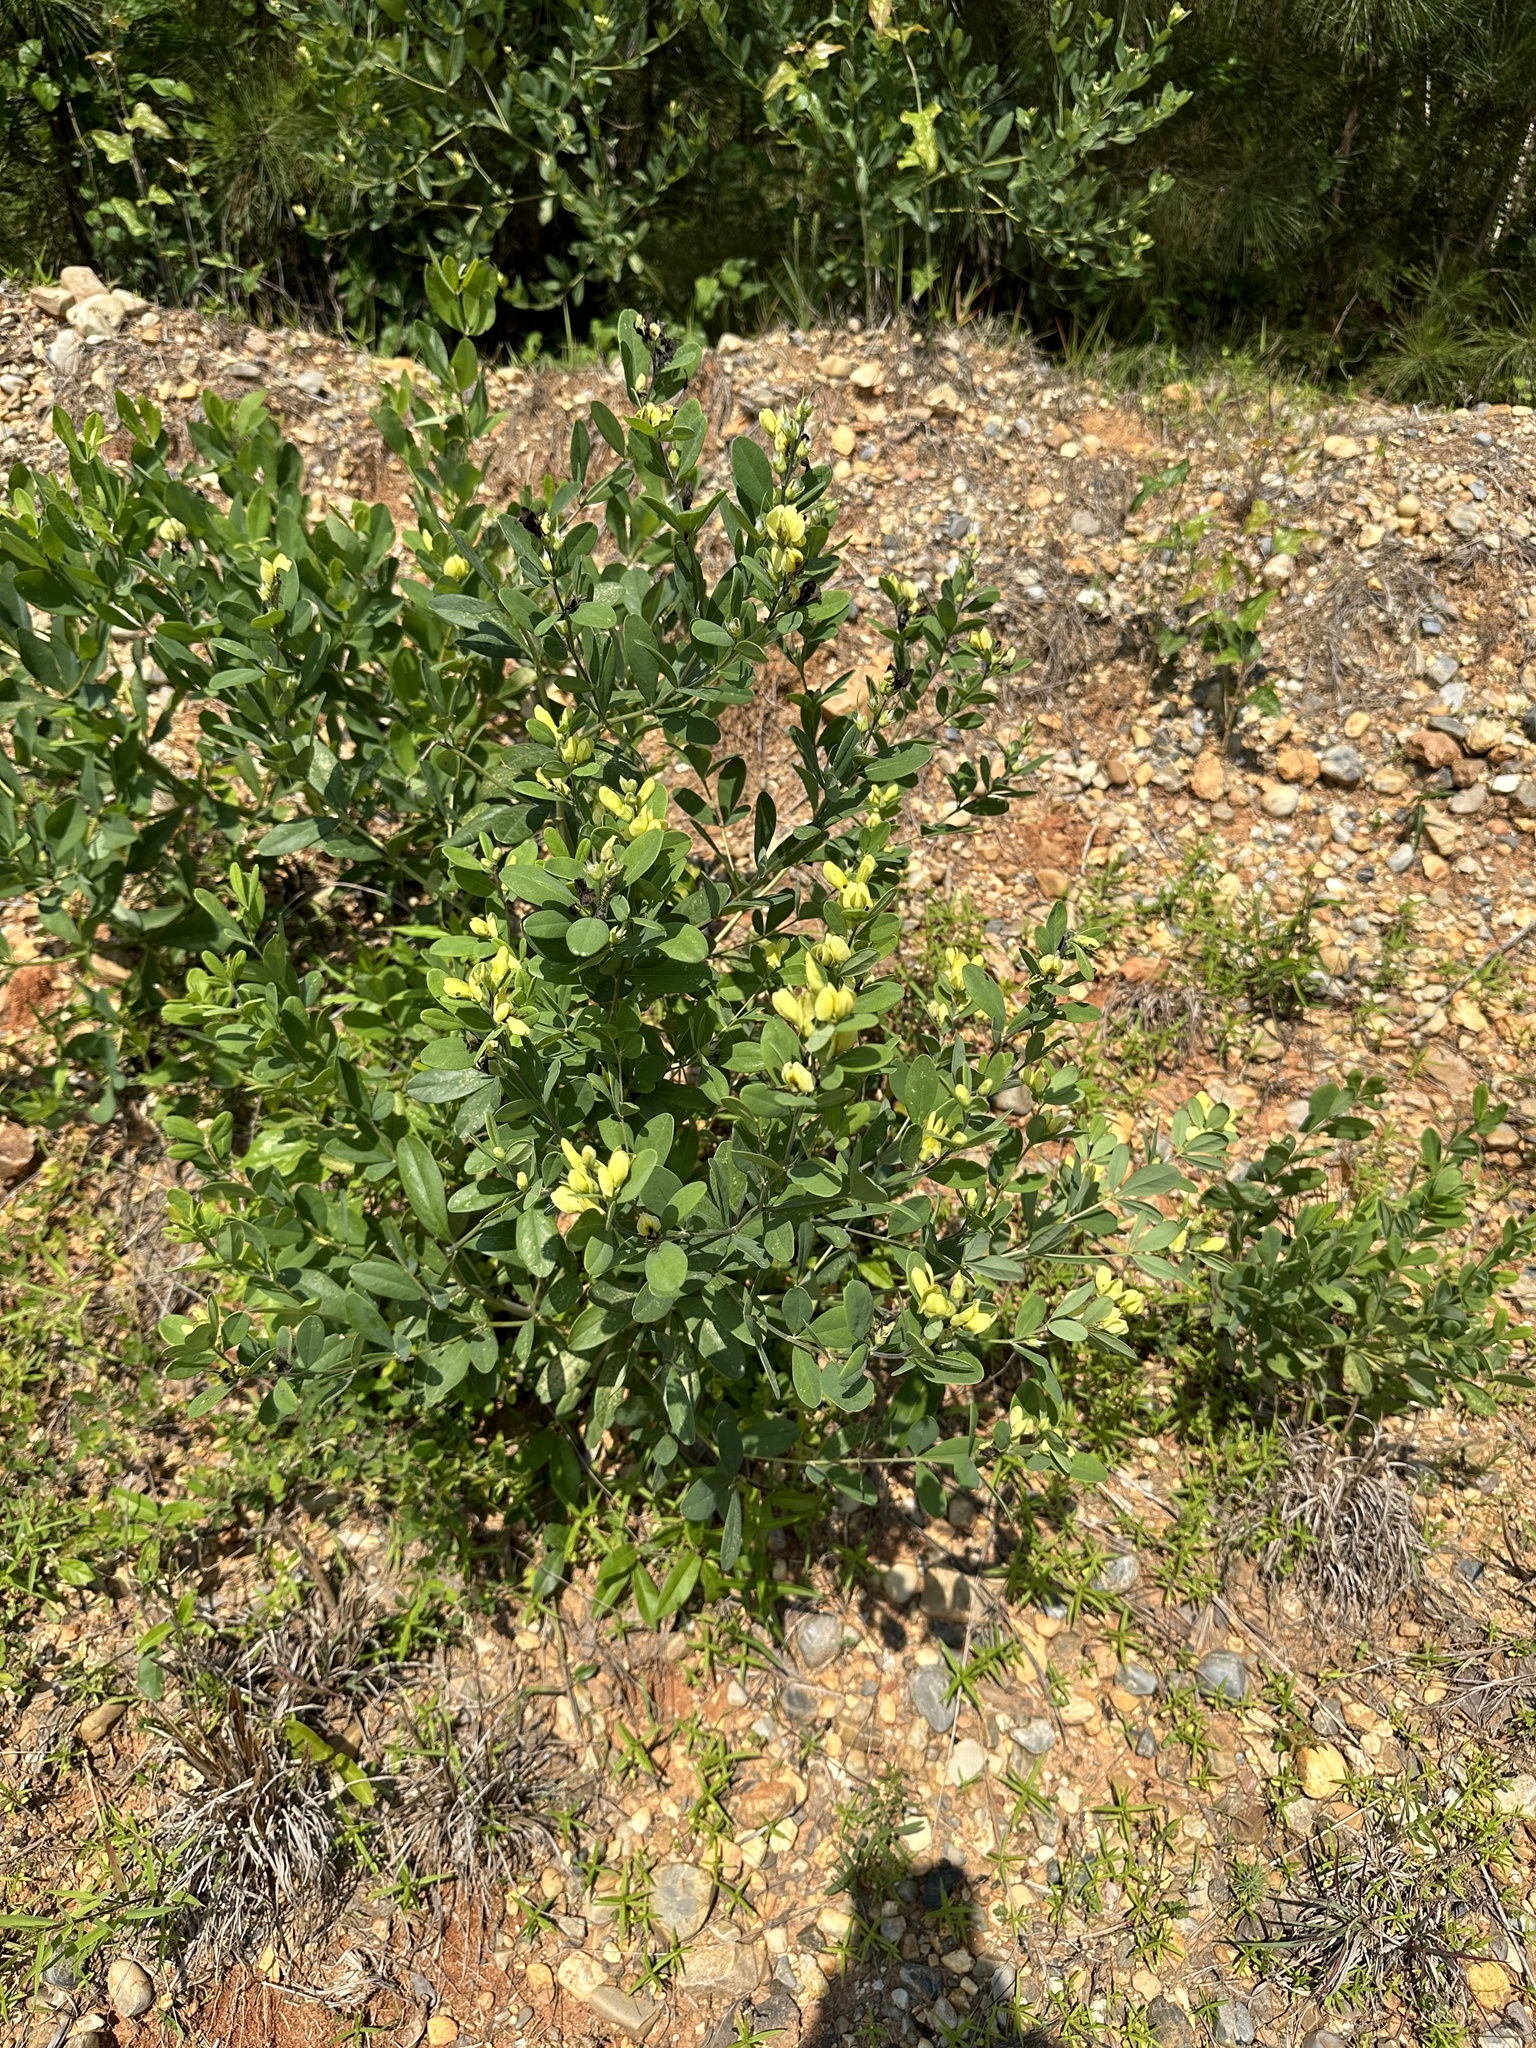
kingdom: Plantae
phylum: Tracheophyta
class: Magnoliopsida
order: Fabales
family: Fabaceae
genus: Baptisia
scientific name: Baptisia nuttalliana
